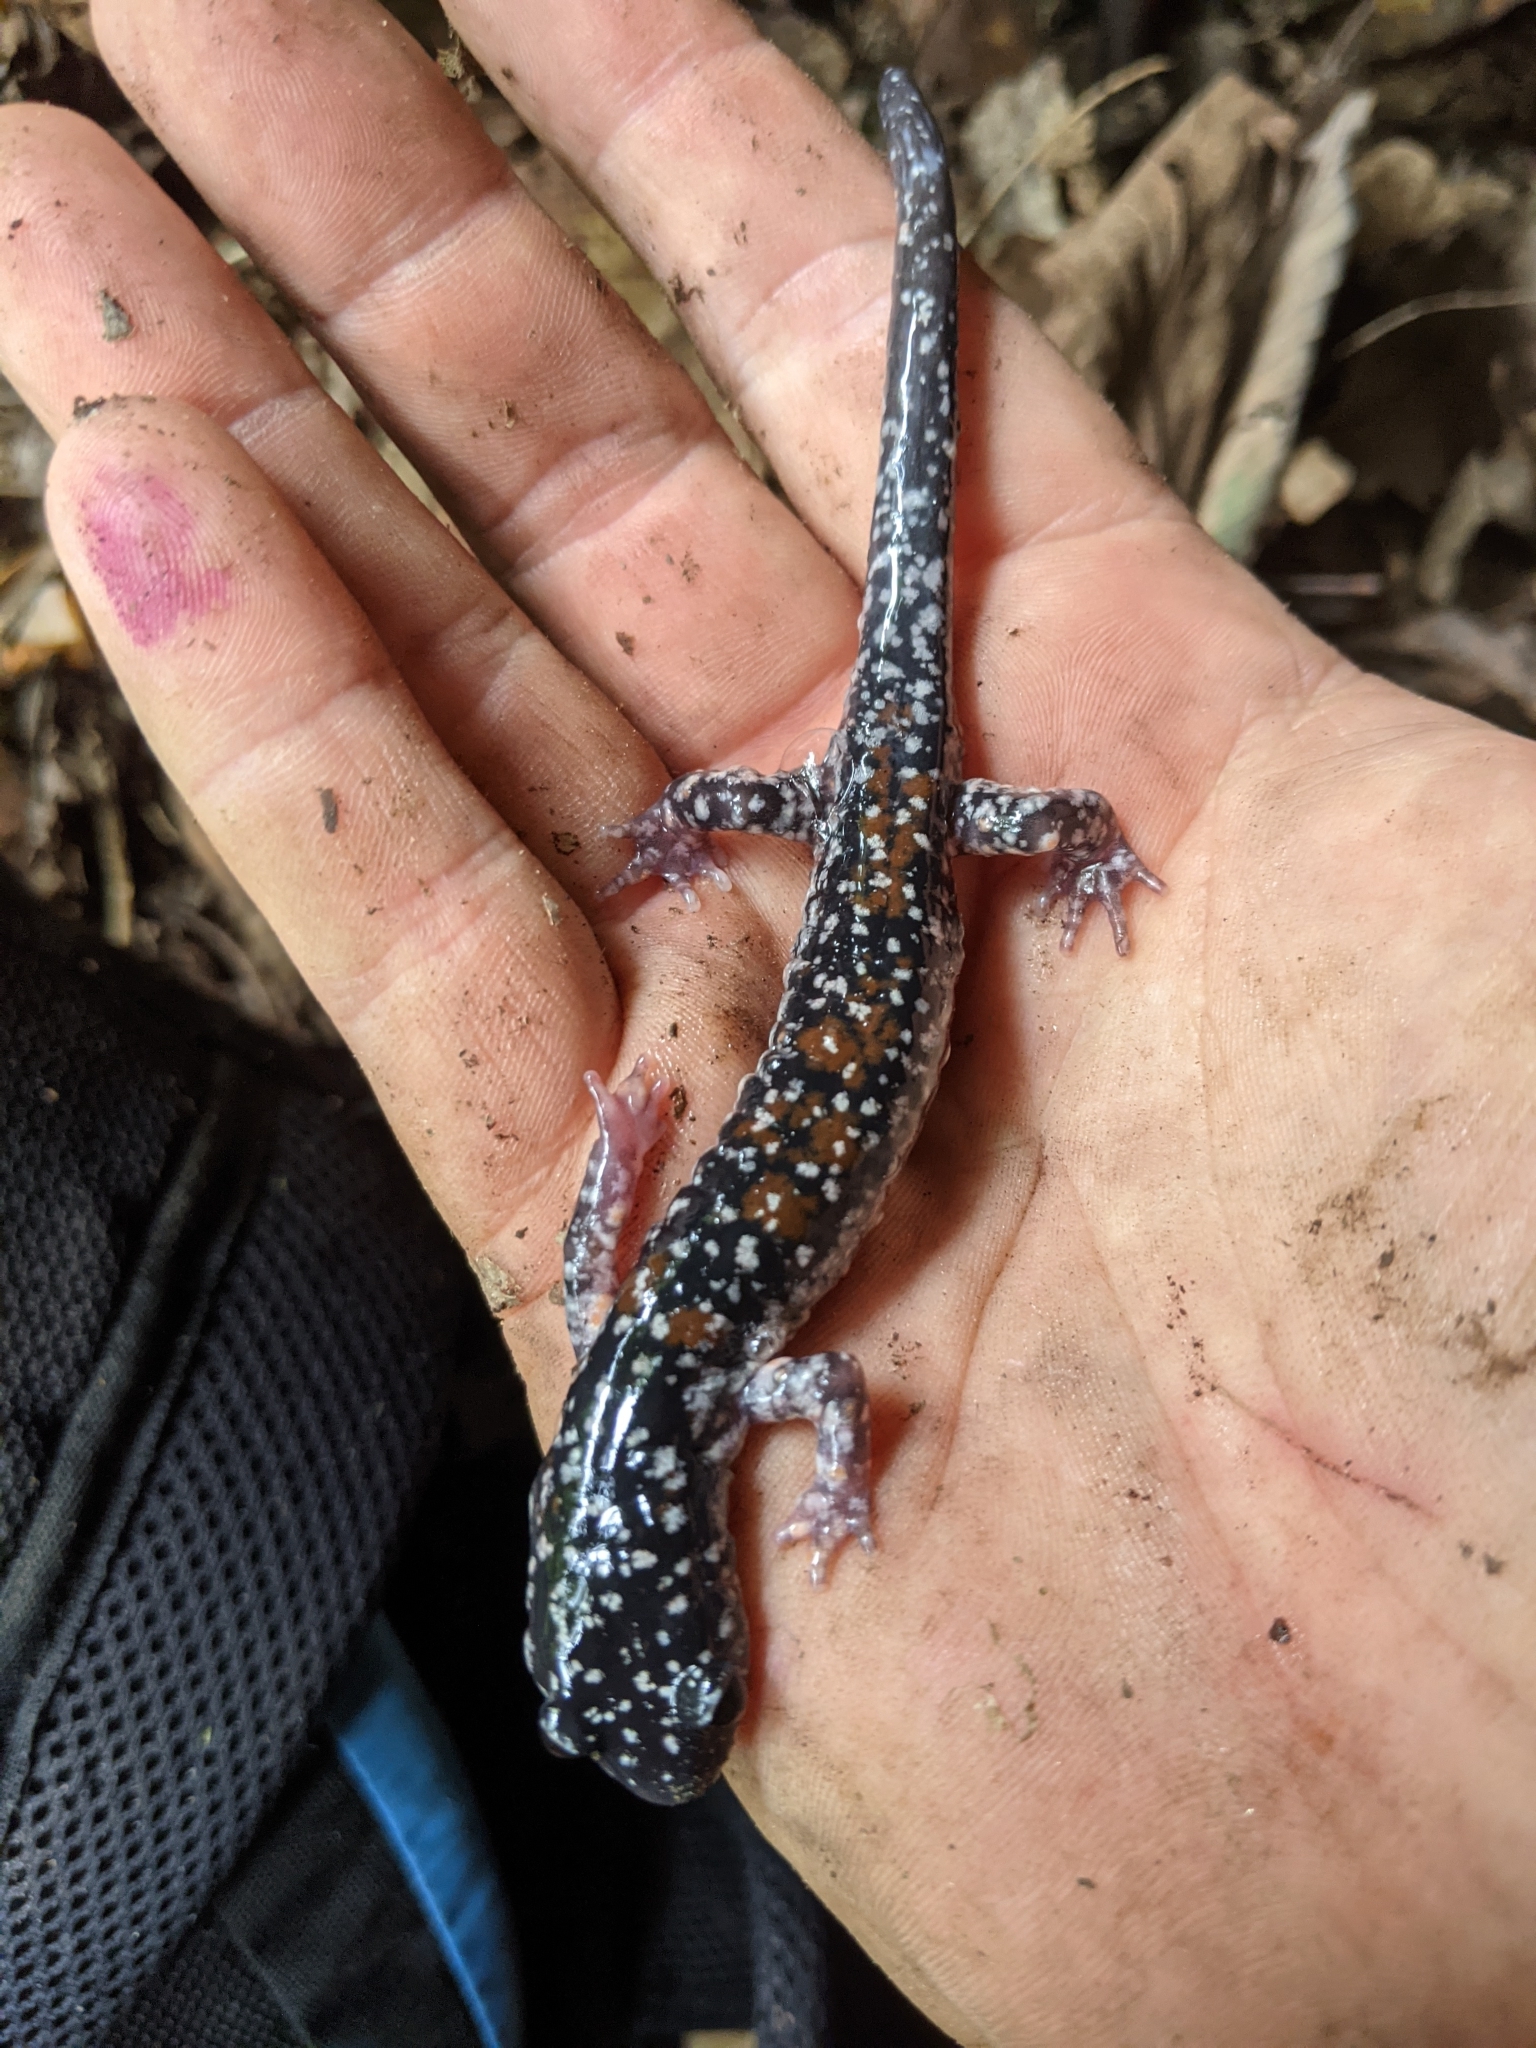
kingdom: Animalia
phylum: Chordata
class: Amphibia
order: Caudata
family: Plethodontidae
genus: Plethodon
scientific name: Plethodon yonahlossee
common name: Yonahlossee salamander
